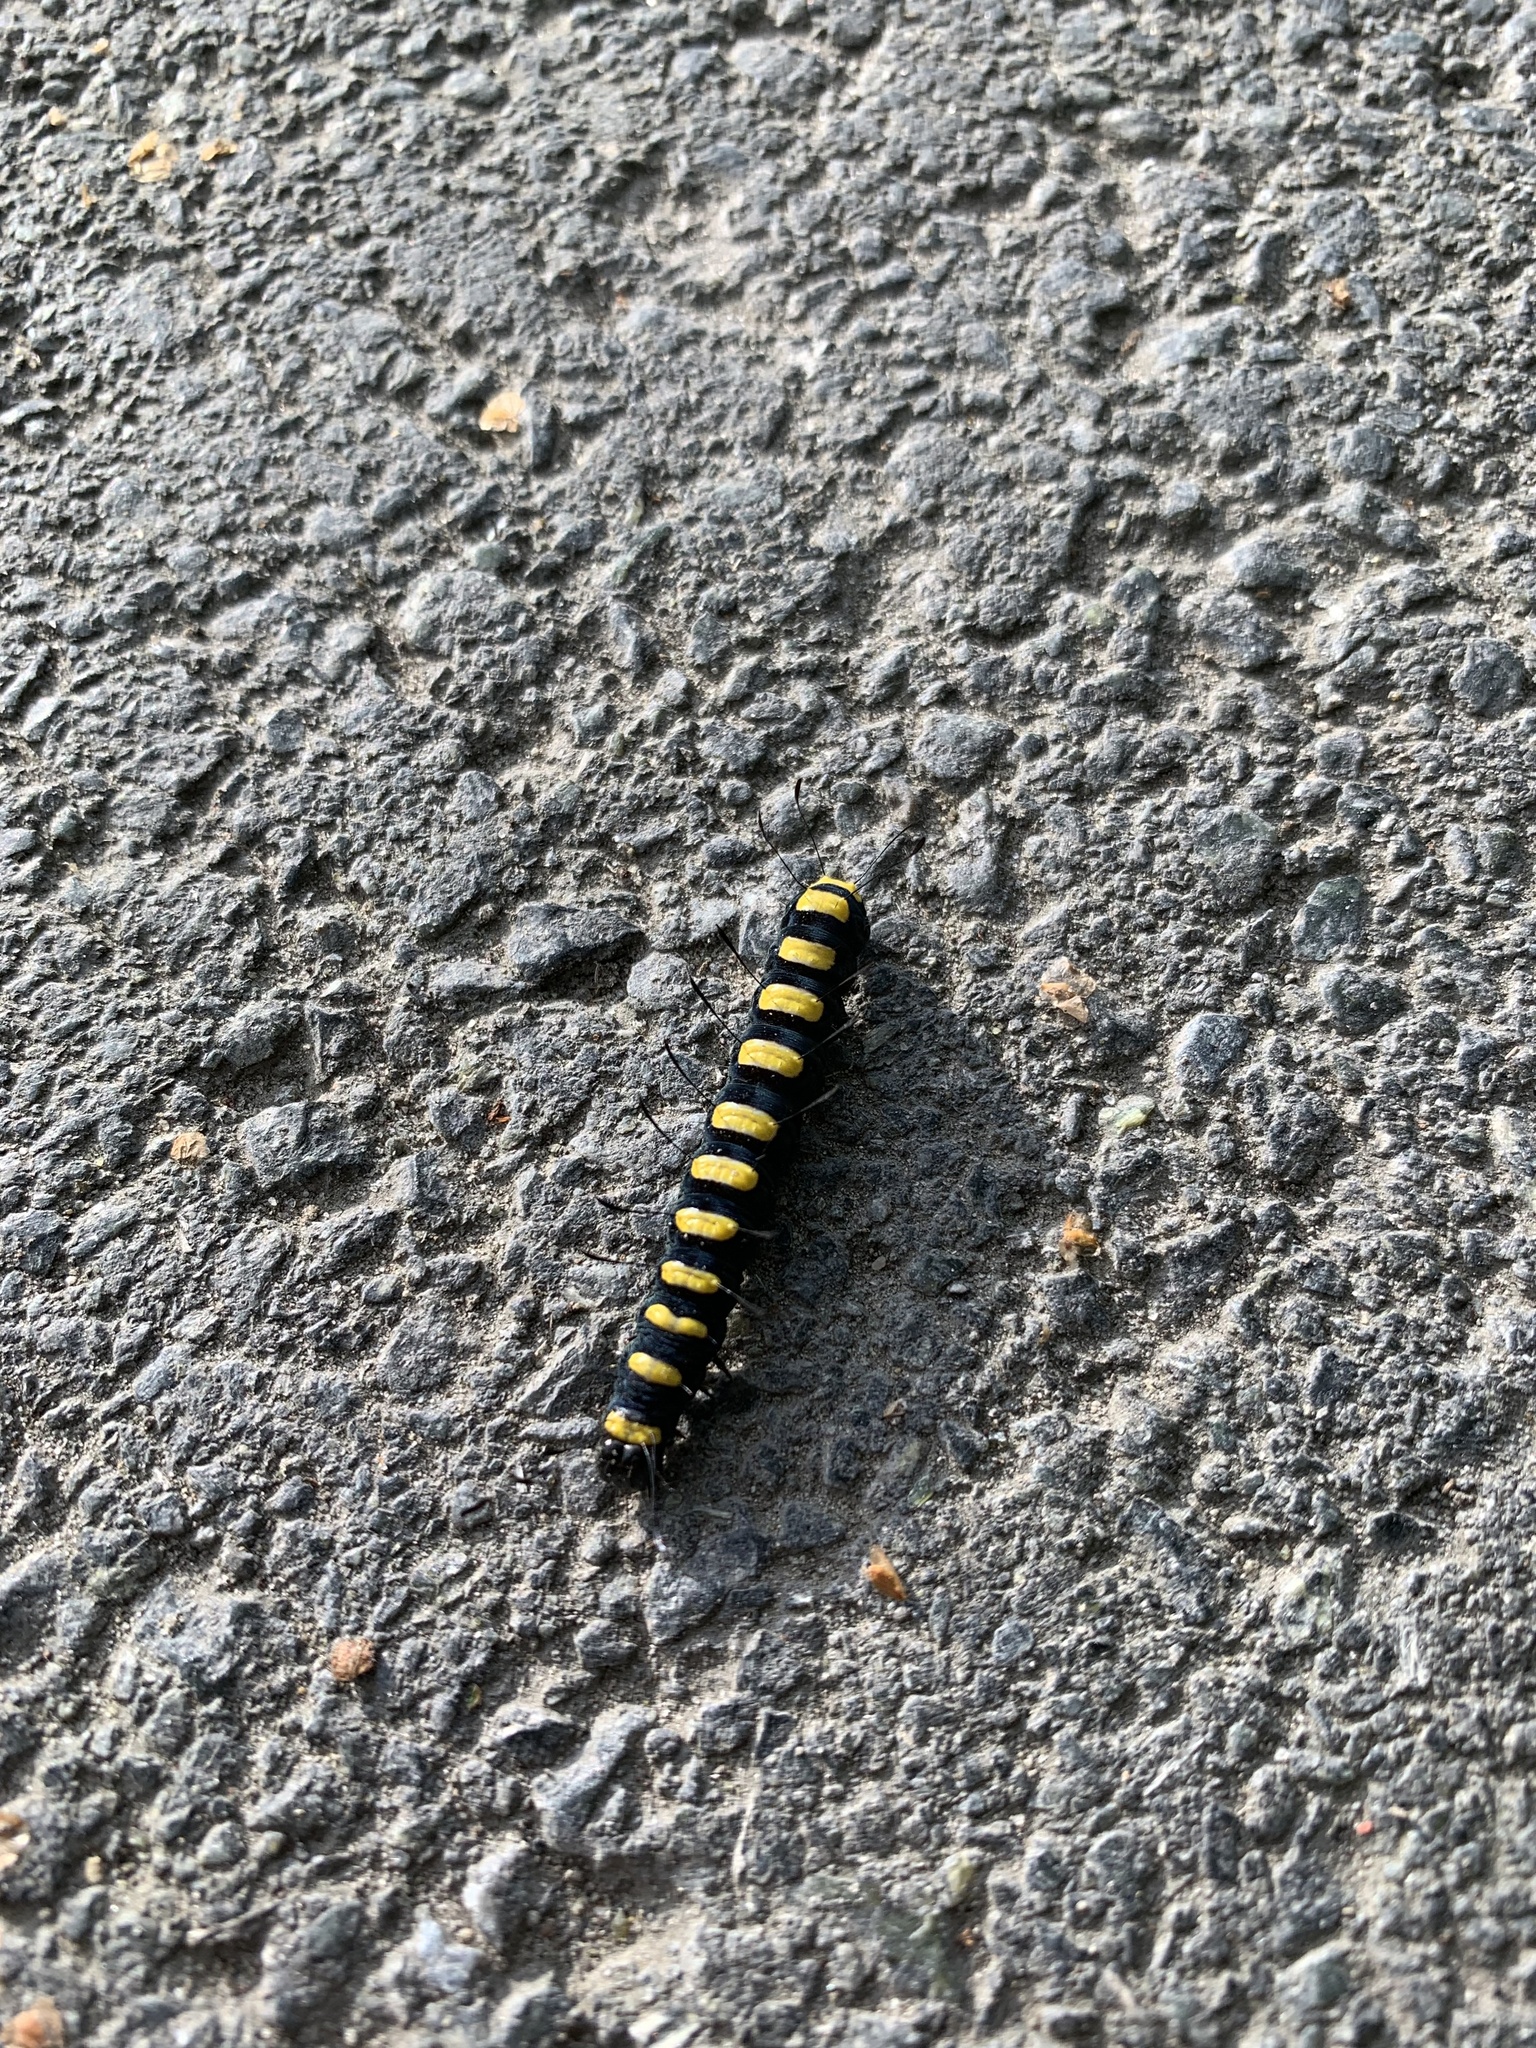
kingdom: Animalia
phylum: Arthropoda
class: Insecta
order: Lepidoptera
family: Noctuidae
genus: Acronicta
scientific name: Acronicta alni
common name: Alder moth
